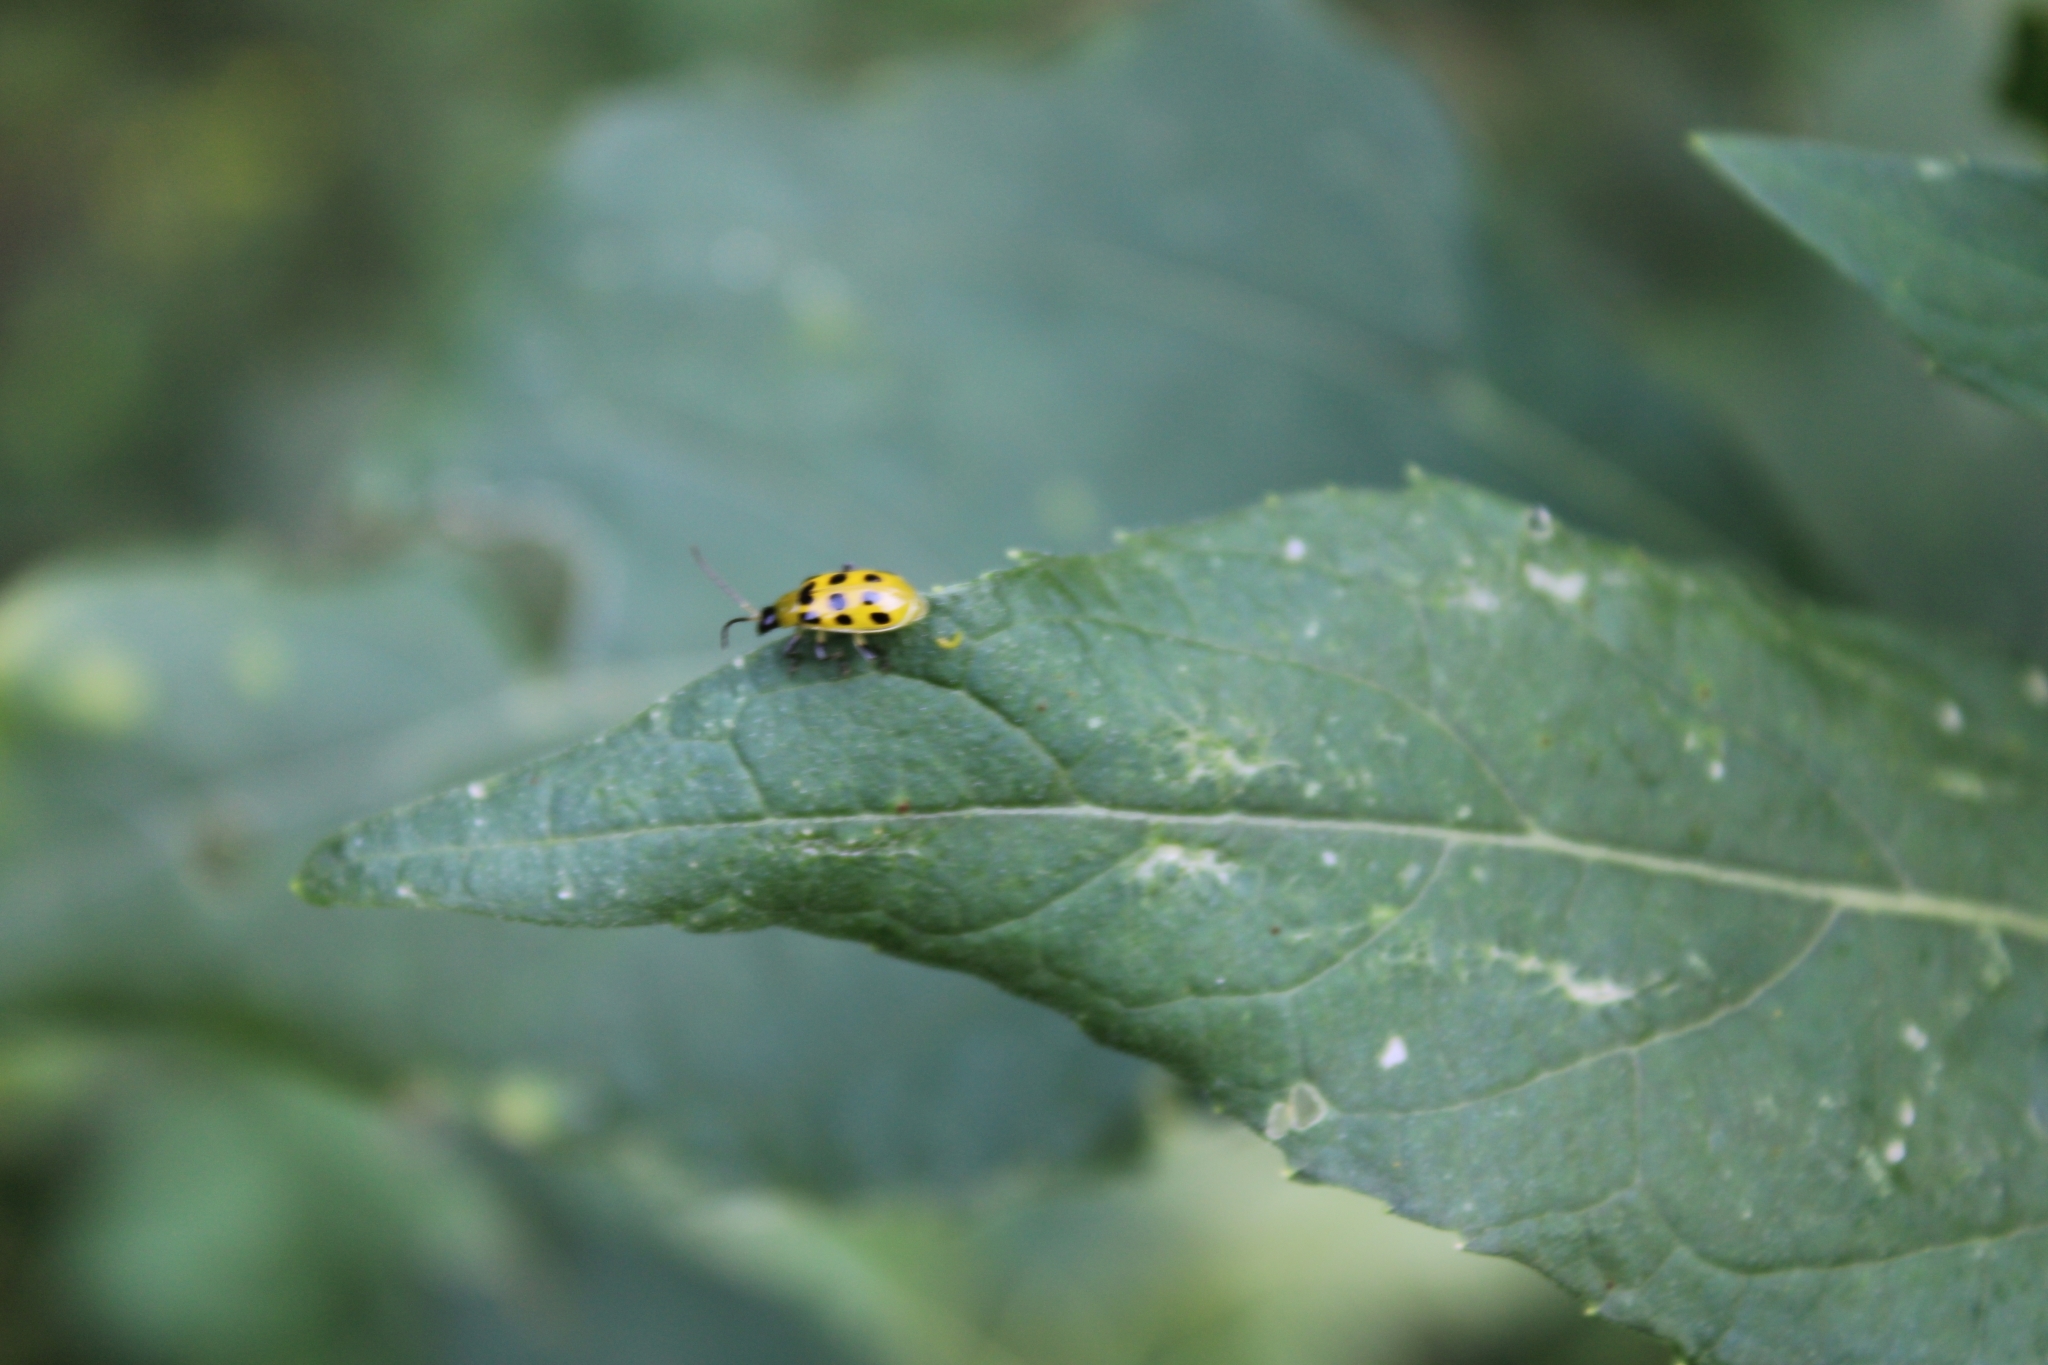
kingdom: Animalia
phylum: Arthropoda
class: Insecta
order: Coleoptera
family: Chrysomelidae
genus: Diabrotica
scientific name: Diabrotica undecimpunctata
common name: Spotted cucumber beetle
